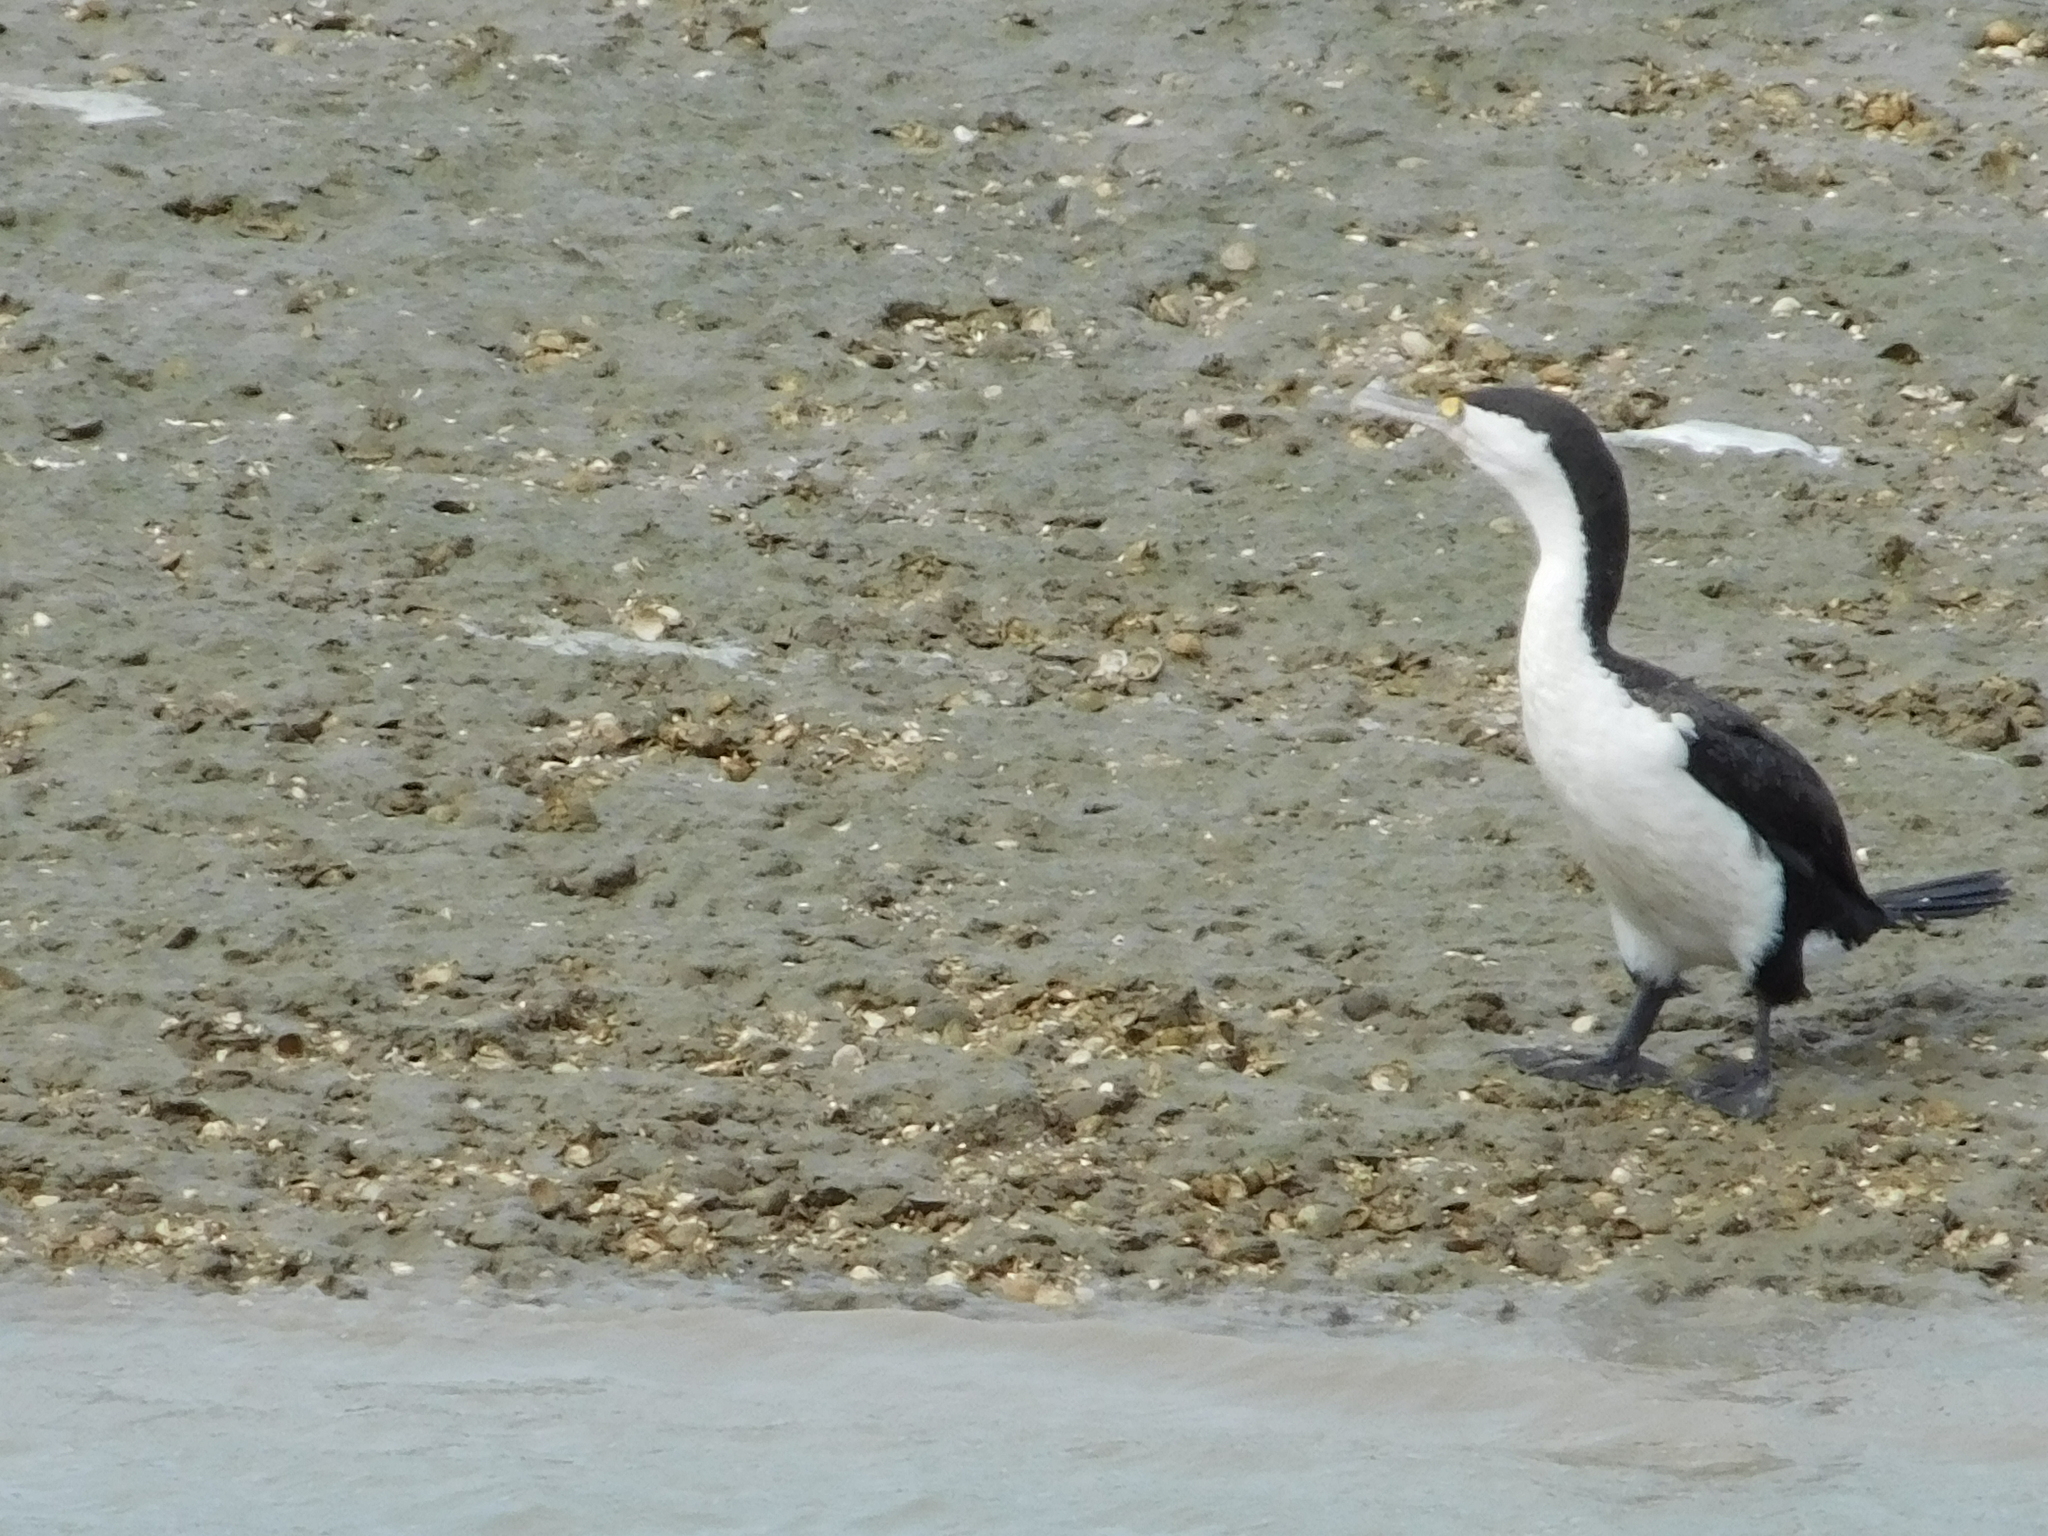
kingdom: Animalia
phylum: Chordata
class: Aves
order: Suliformes
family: Phalacrocoracidae
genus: Phalacrocorax
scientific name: Phalacrocorax varius
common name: Pied cormorant
